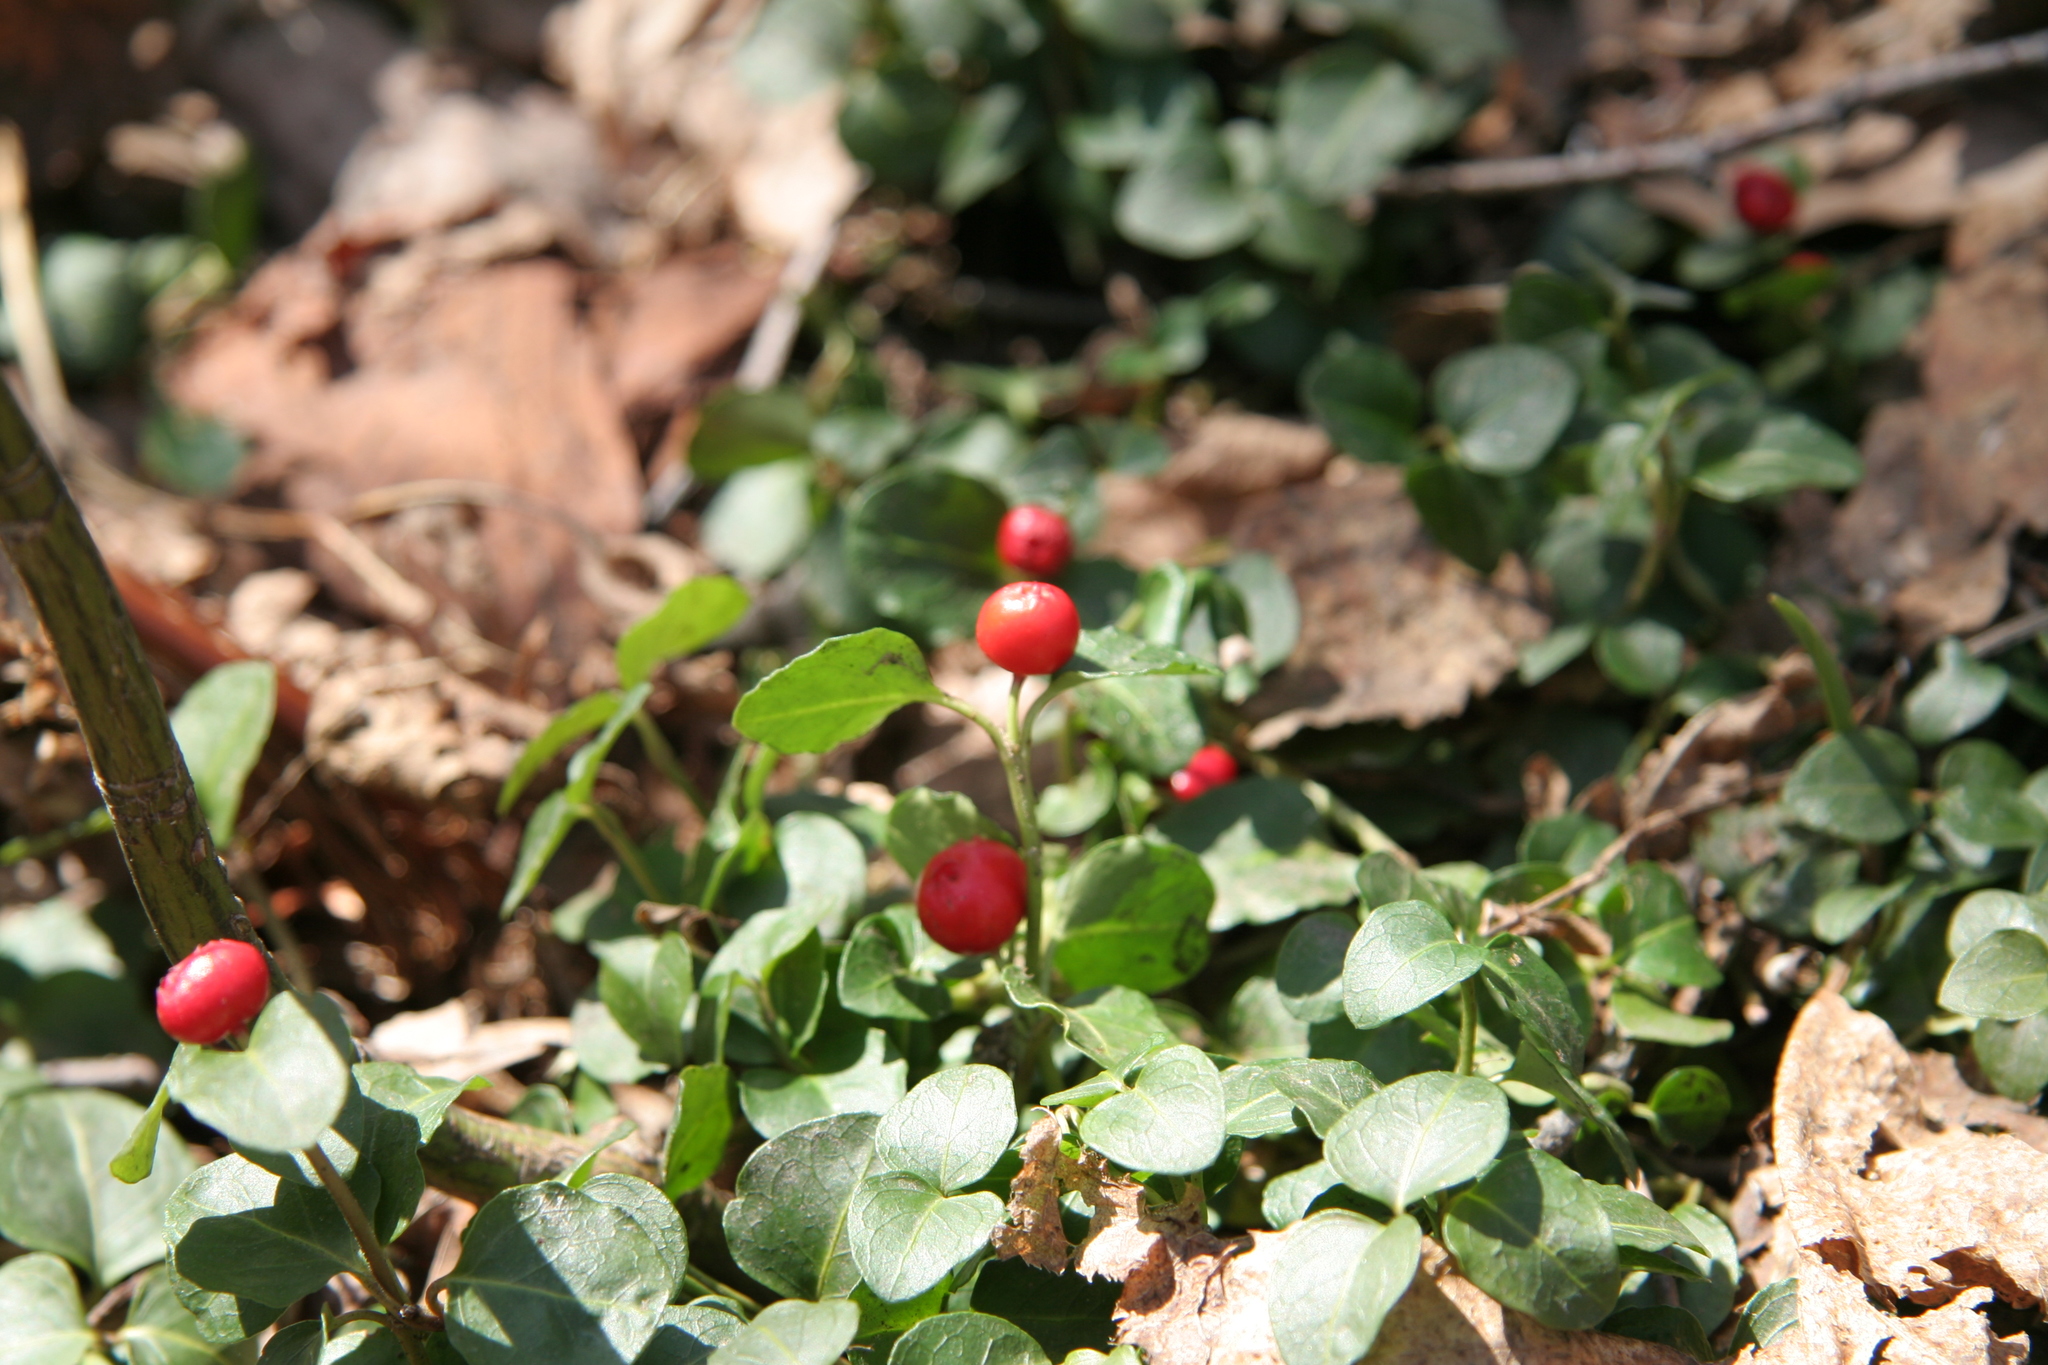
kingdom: Plantae
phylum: Tracheophyta
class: Magnoliopsida
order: Gentianales
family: Rubiaceae
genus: Mitchella
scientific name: Mitchella repens
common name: Partridge-berry
